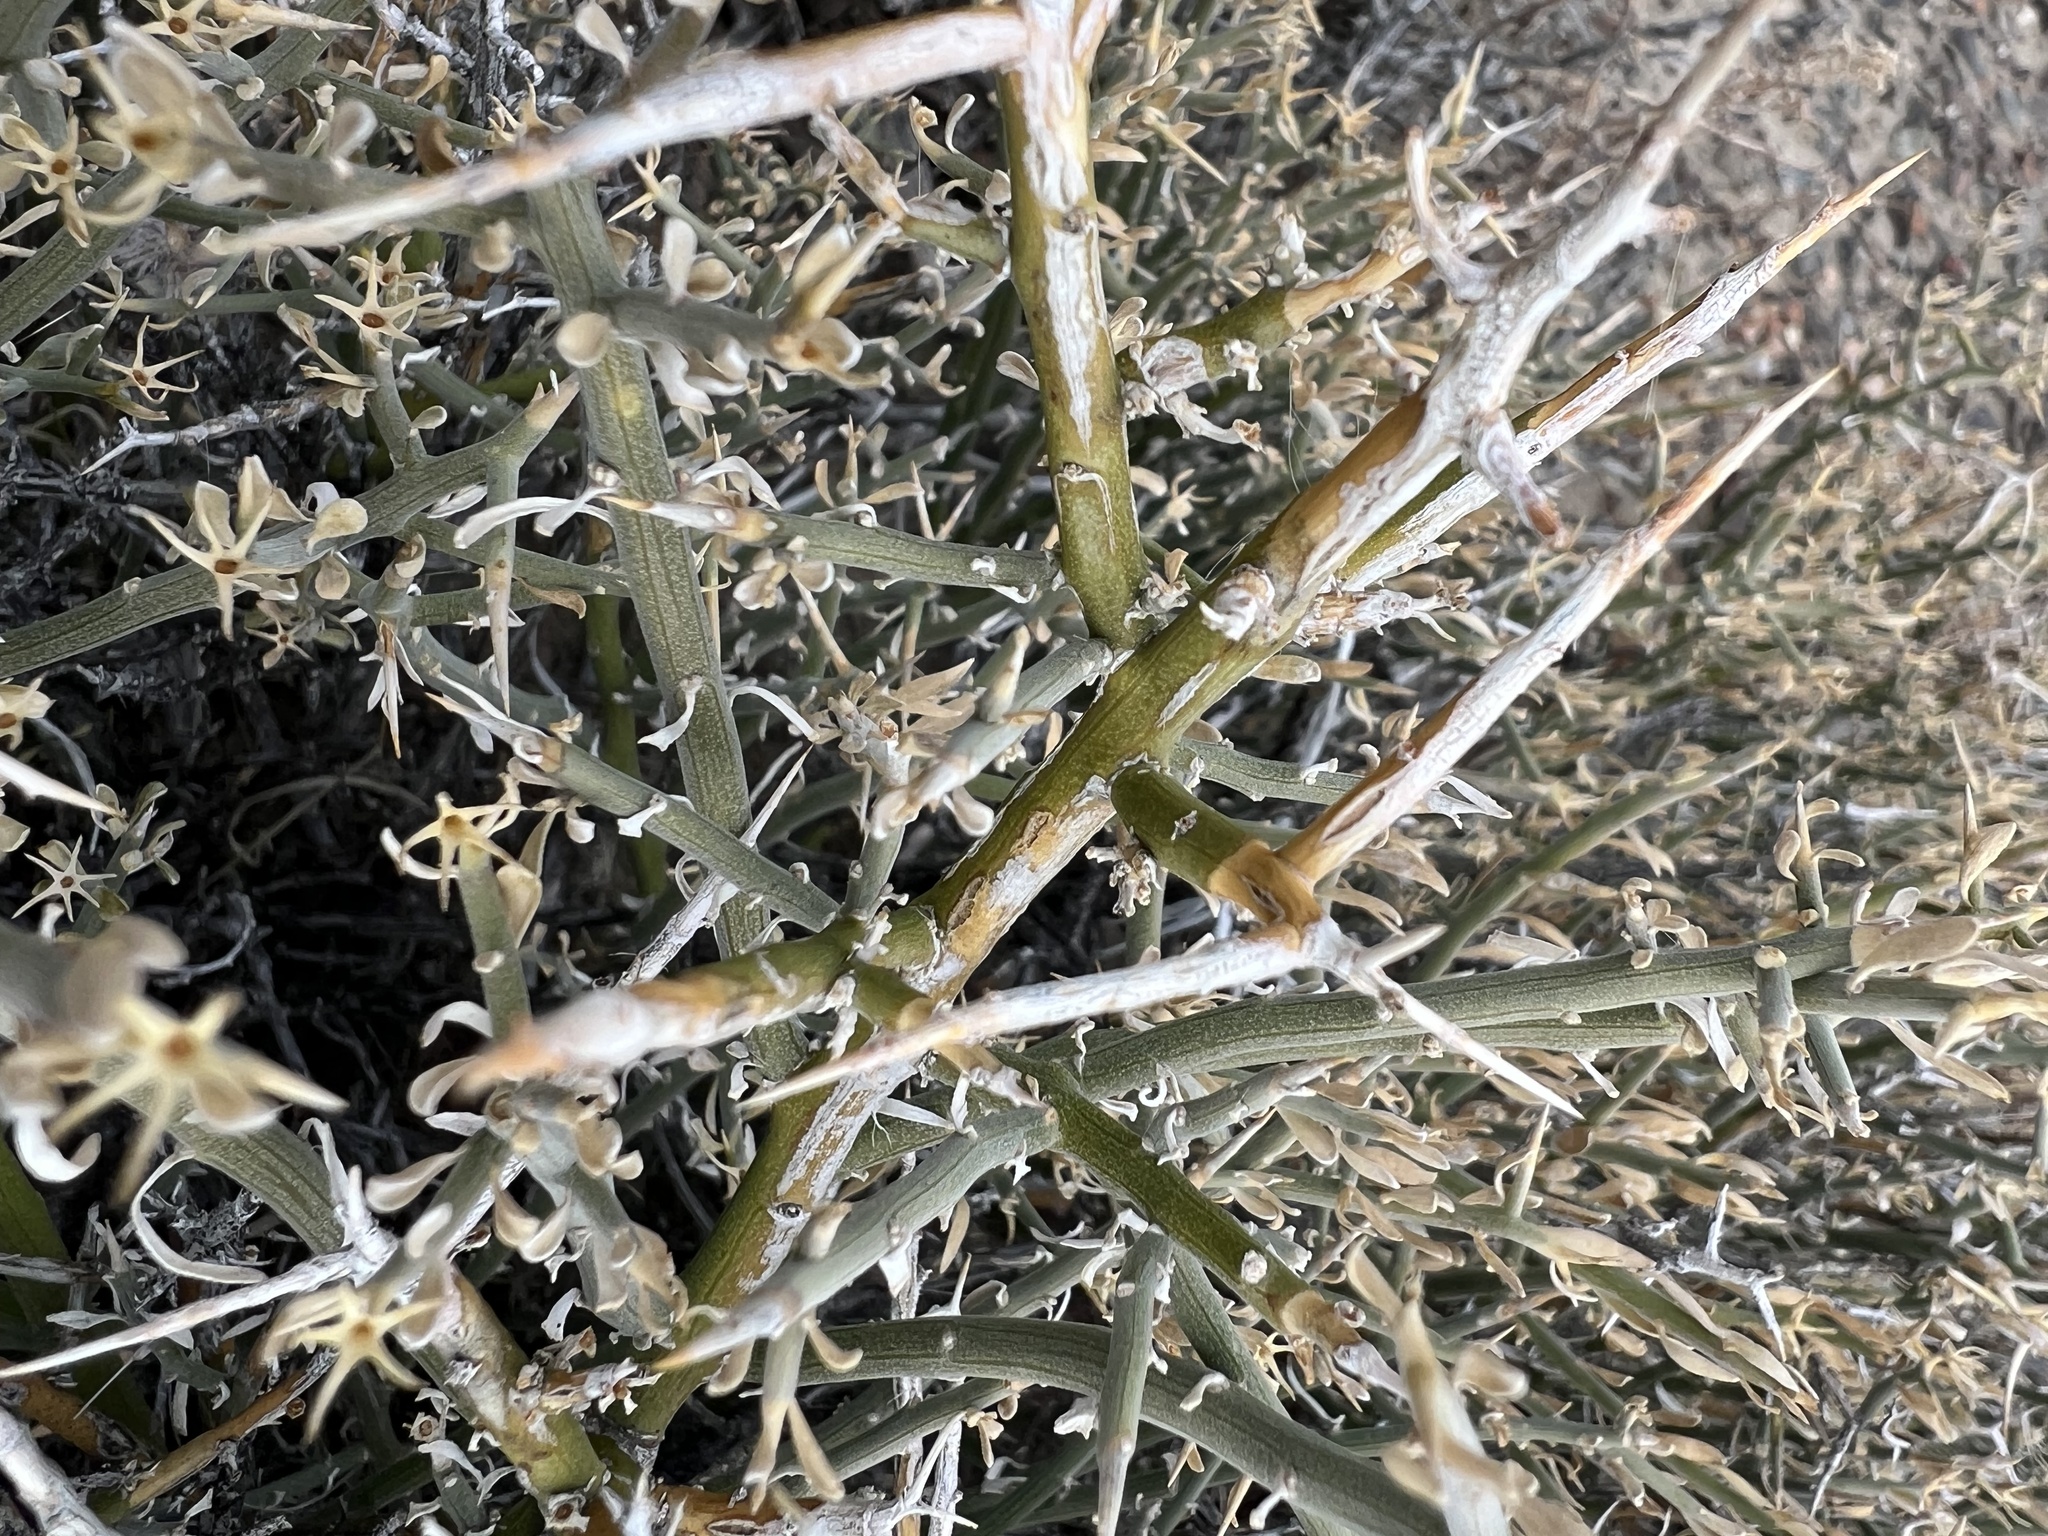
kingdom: Plantae
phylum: Tracheophyta
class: Magnoliopsida
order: Lamiales
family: Oleaceae
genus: Menodora
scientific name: Menodora spinescens
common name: Spiny menodora
